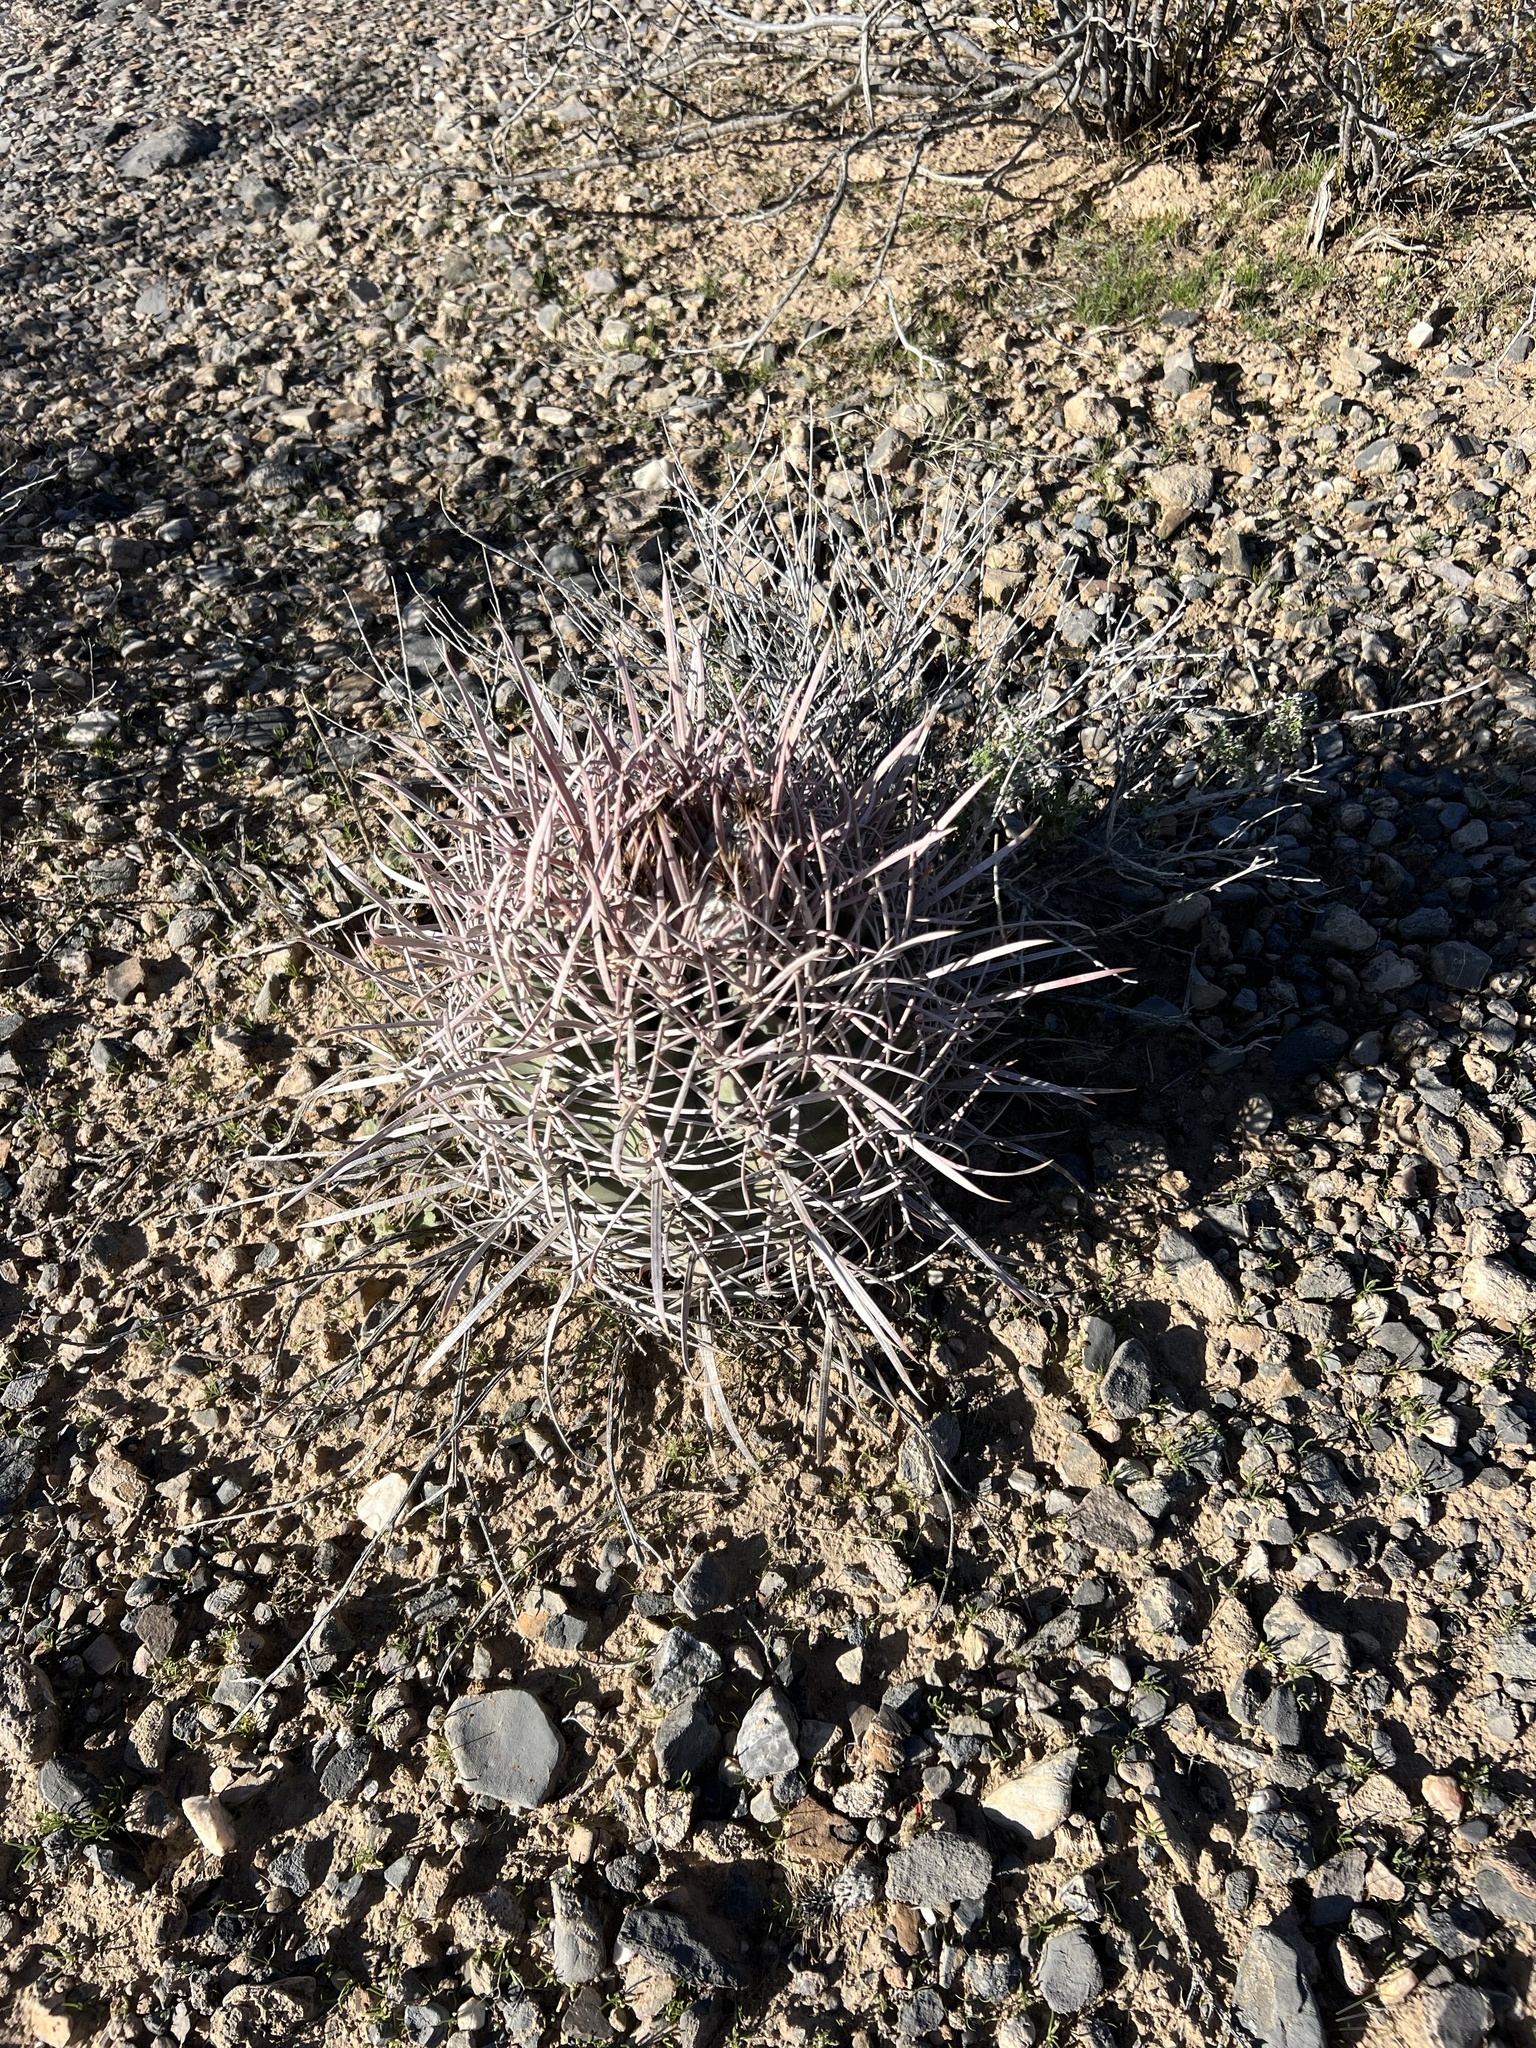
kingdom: Plantae
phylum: Tracheophyta
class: Magnoliopsida
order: Caryophyllales
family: Cactaceae
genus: Echinocactus
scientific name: Echinocactus polycephalus
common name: Cottontop cactus
